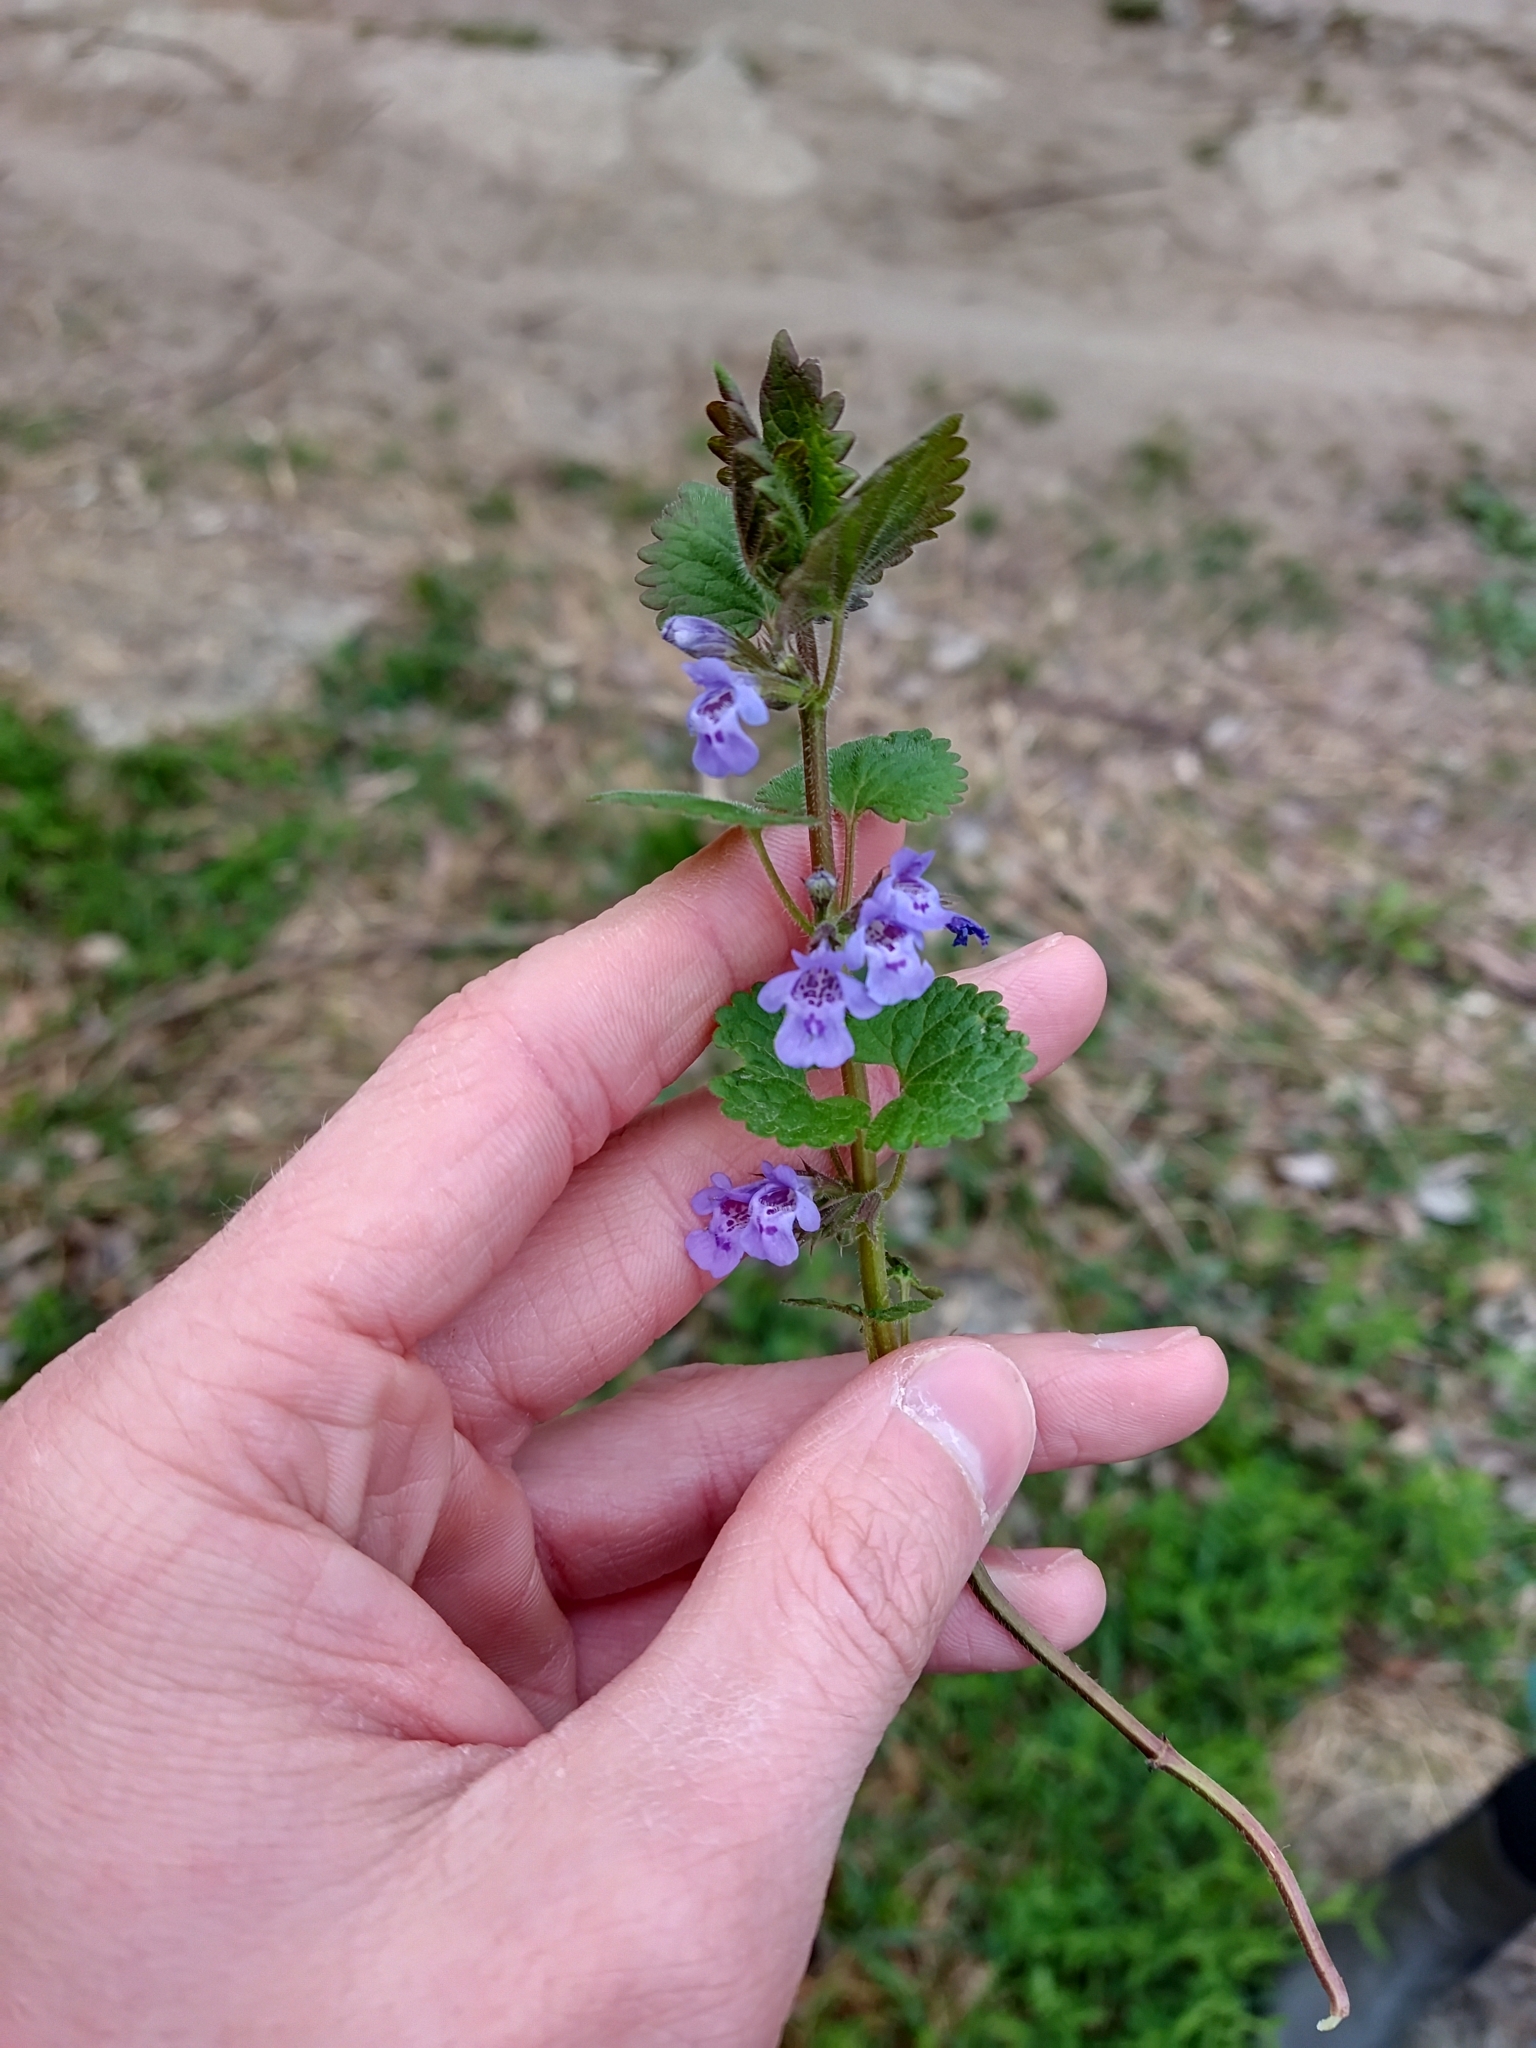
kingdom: Plantae
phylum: Tracheophyta
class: Magnoliopsida
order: Lamiales
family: Lamiaceae
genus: Glechoma
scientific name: Glechoma hederacea
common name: Ground ivy
